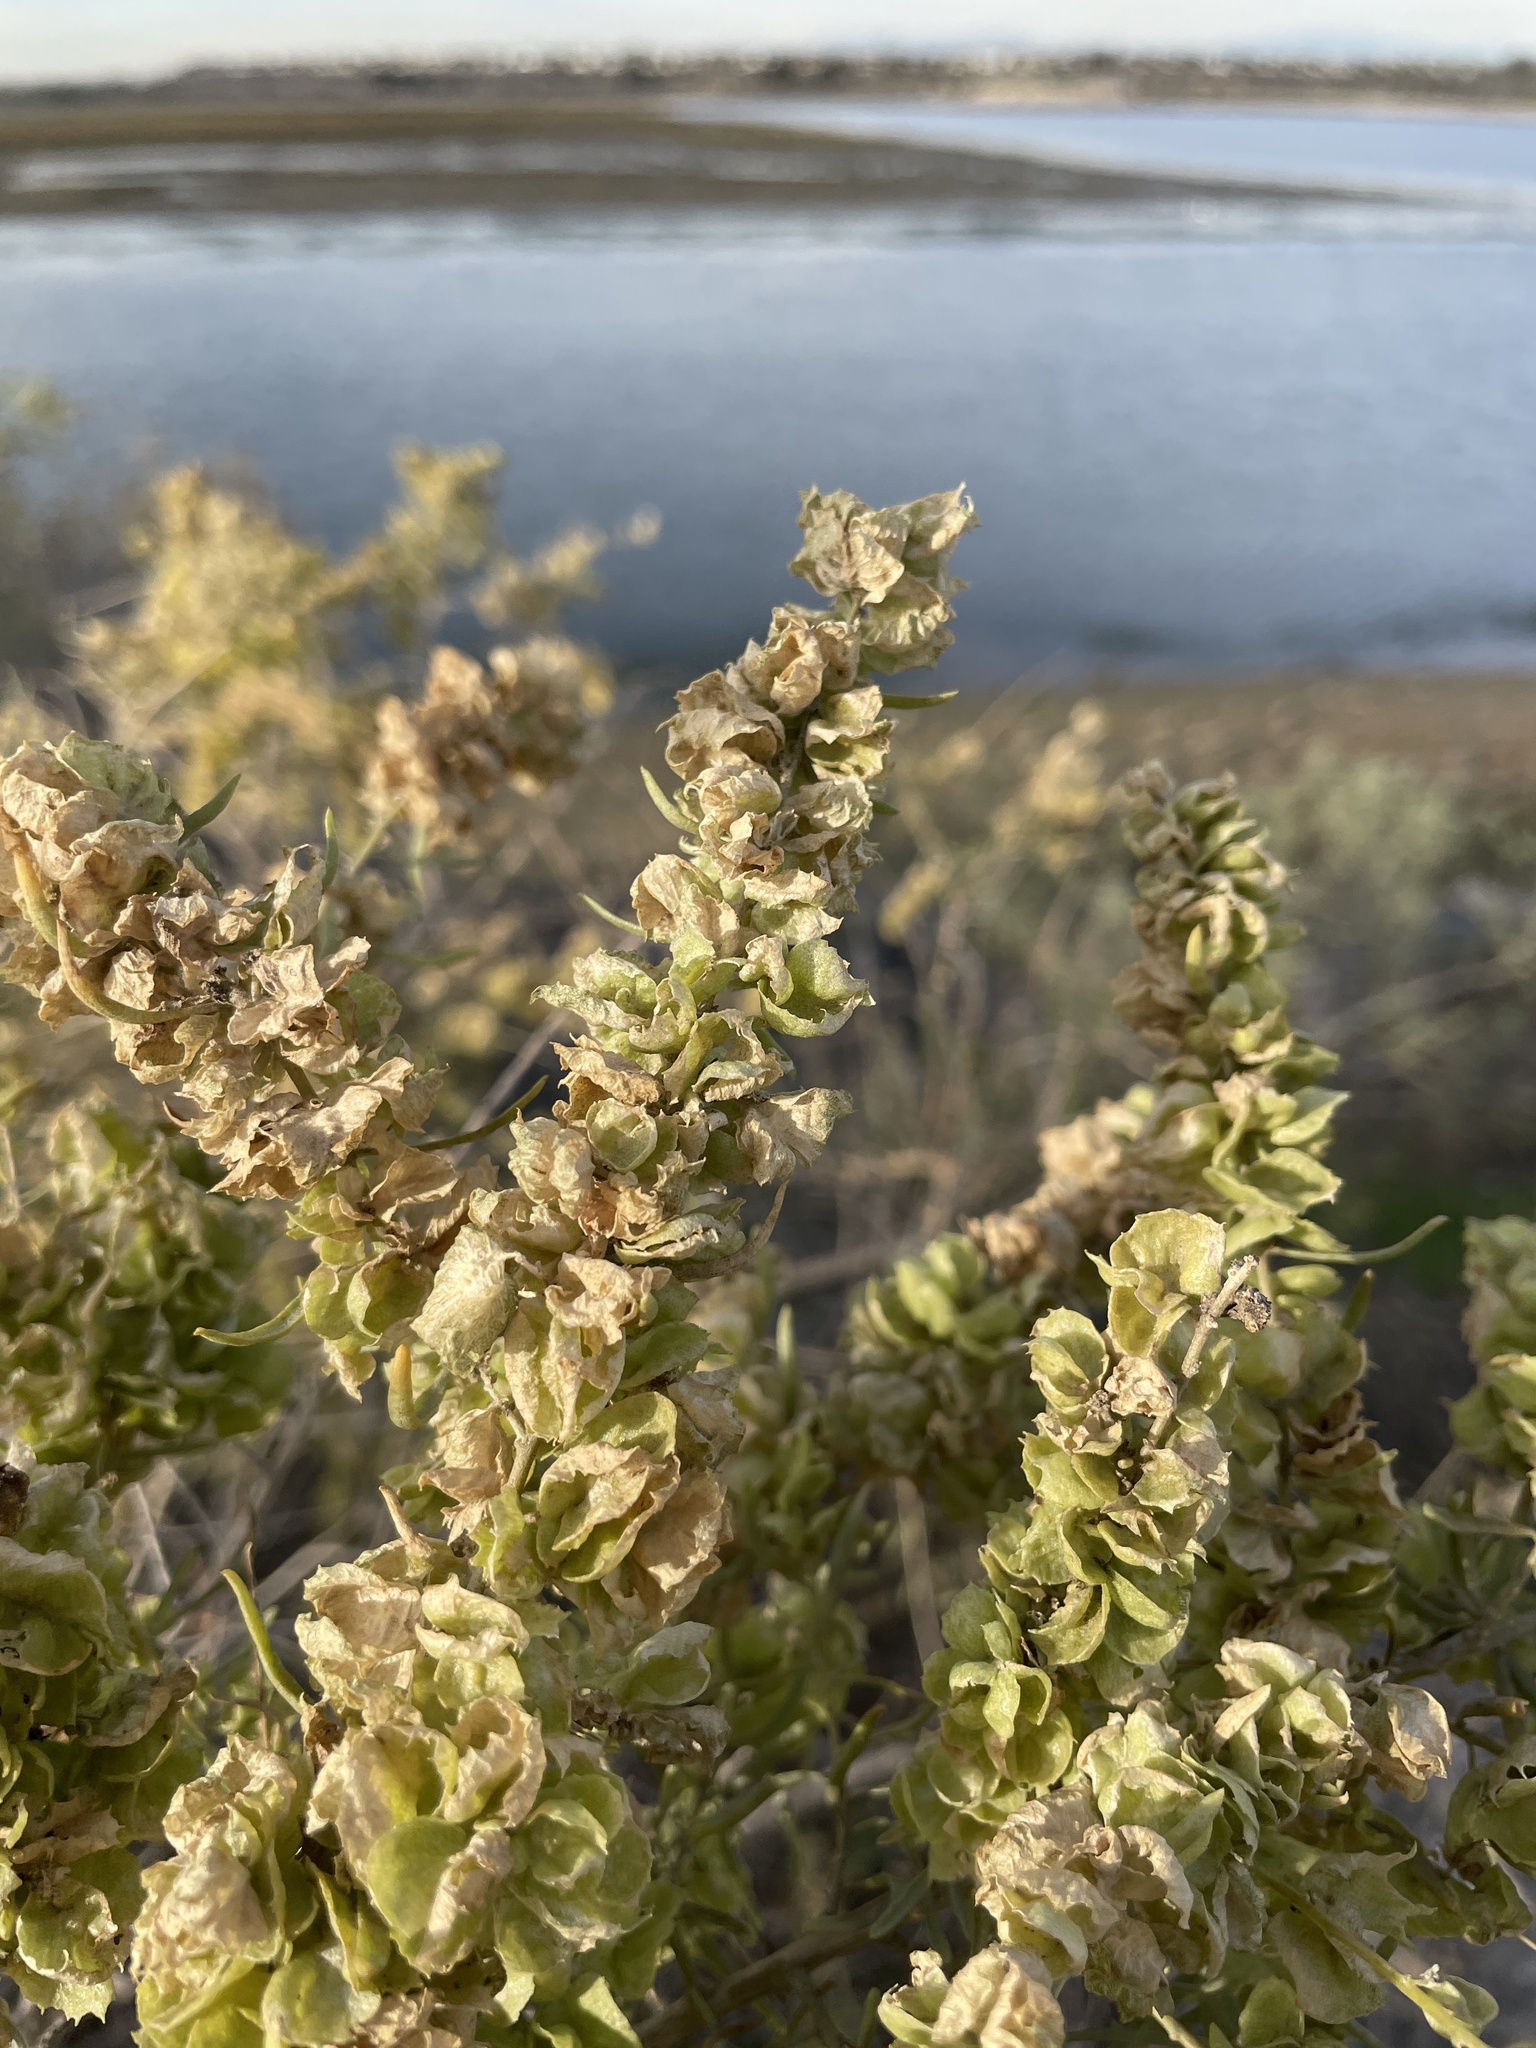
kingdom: Plantae
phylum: Tracheophyta
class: Magnoliopsida
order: Caryophyllales
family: Amaranthaceae
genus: Atriplex
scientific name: Atriplex canescens
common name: Four-wing saltbush
